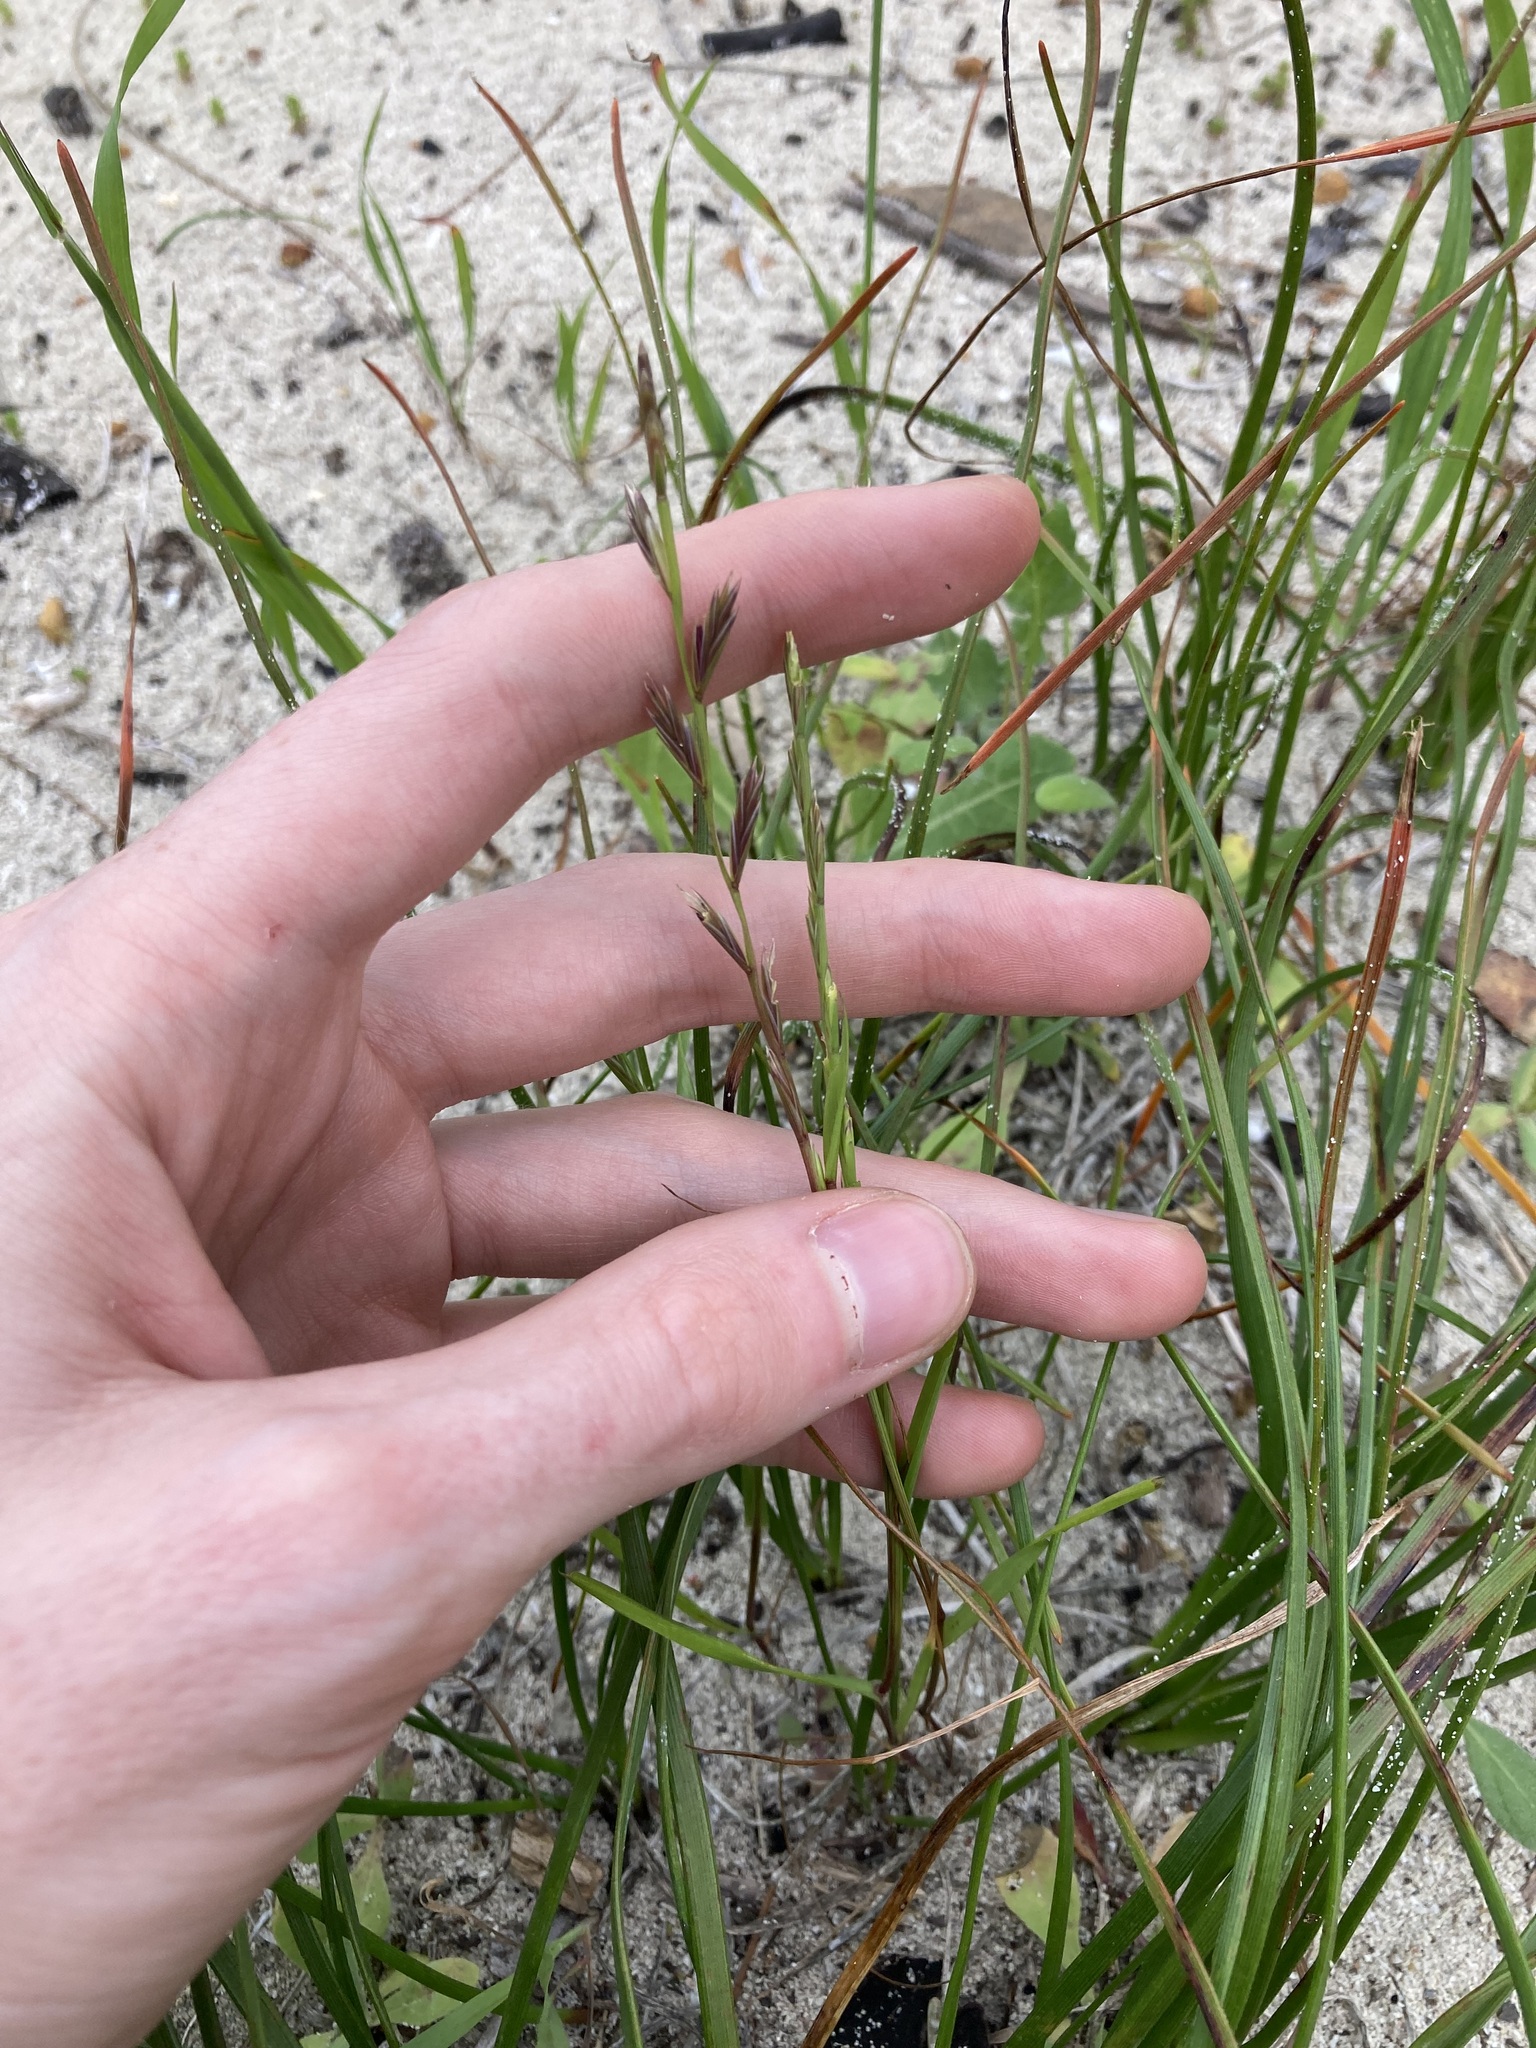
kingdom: Plantae
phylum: Tracheophyta
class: Liliopsida
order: Poales
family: Poaceae
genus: Lolium
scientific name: Lolium rigidum
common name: Wimmera ryegrass
